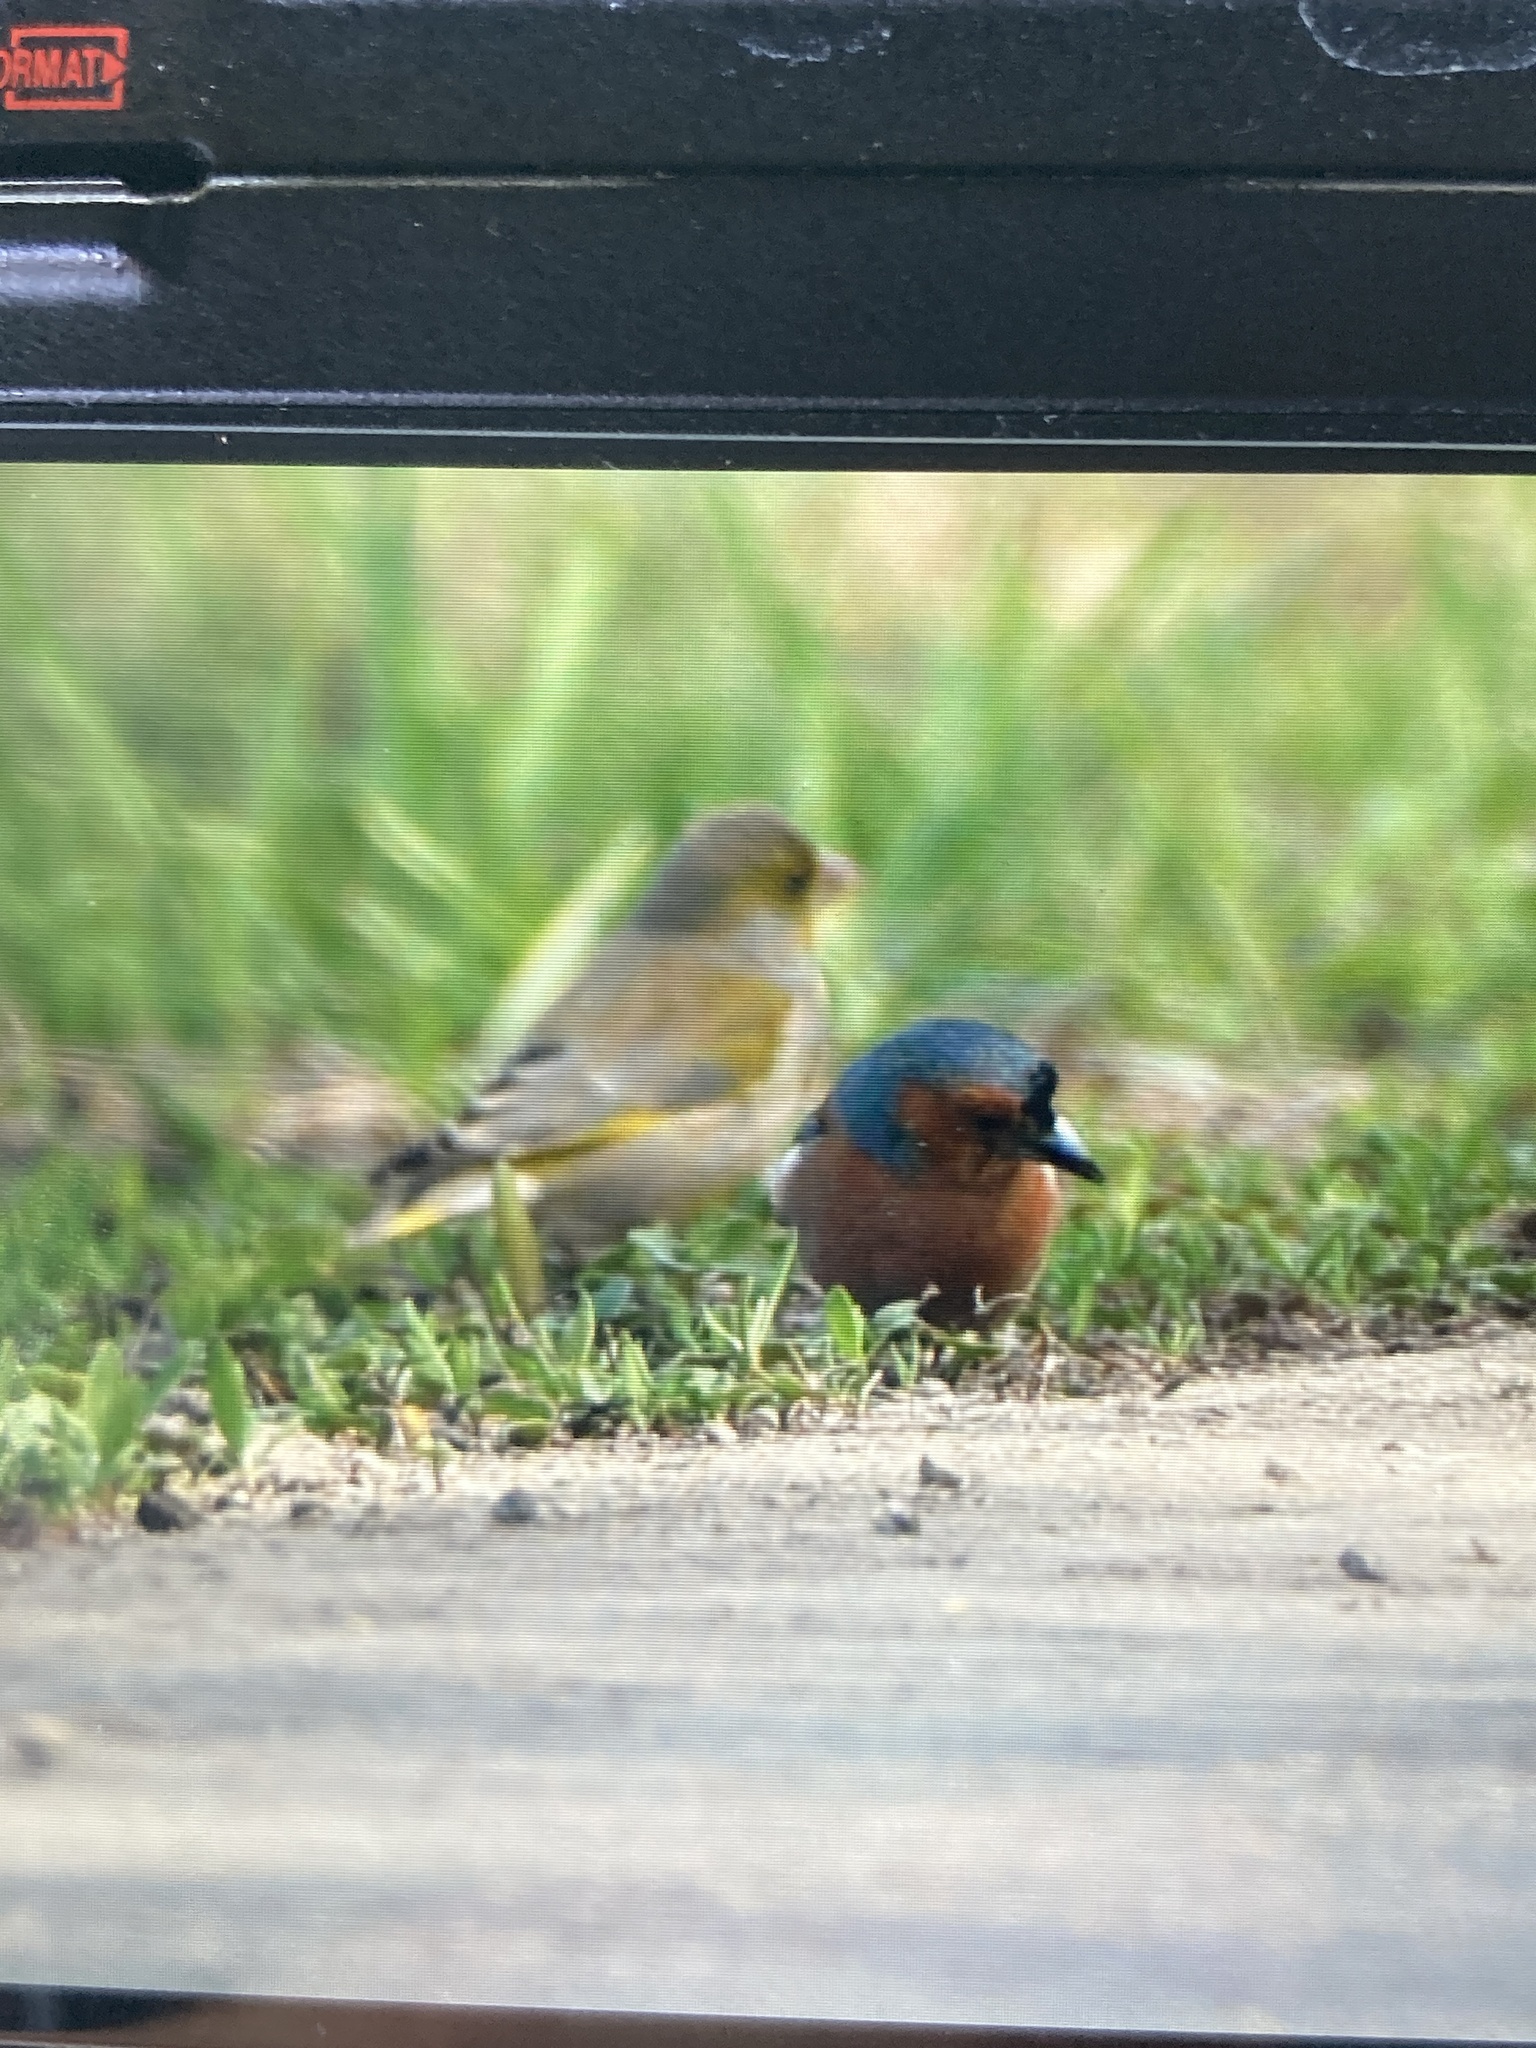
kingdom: Animalia
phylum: Chordata
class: Aves
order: Passeriformes
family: Fringillidae
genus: Fringilla
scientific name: Fringilla coelebs
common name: Common chaffinch
